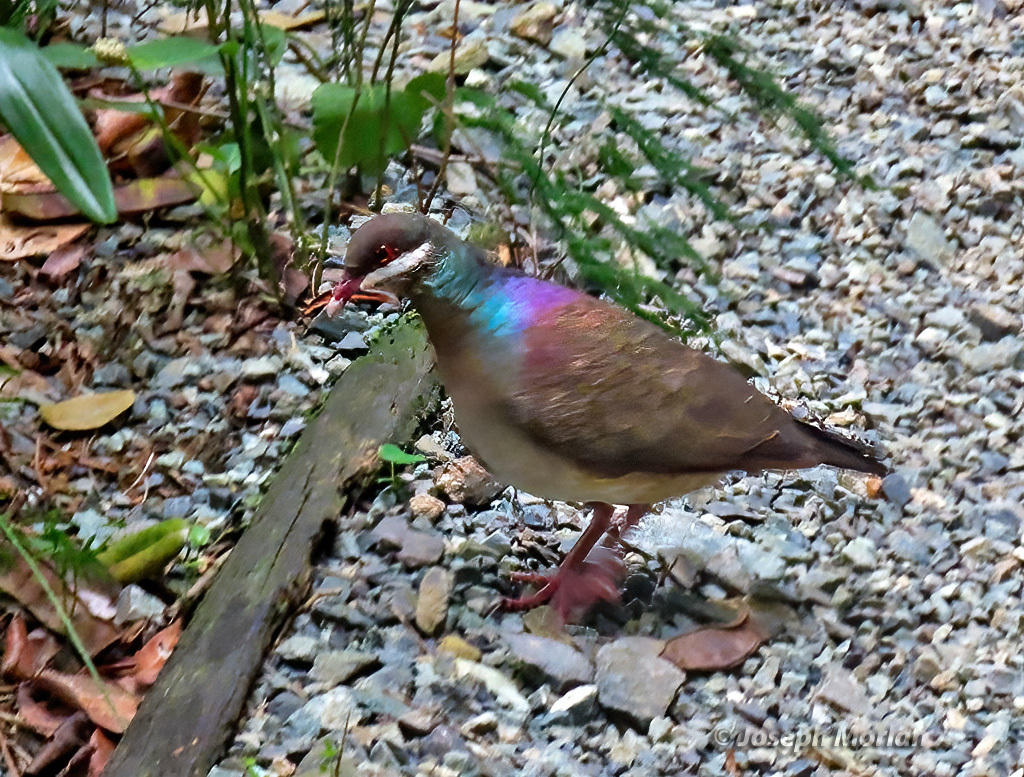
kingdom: Animalia
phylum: Chordata
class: Aves
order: Columbiformes
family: Columbidae
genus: Geotrygon
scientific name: Geotrygon mystacea
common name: Bridled quail-dove
